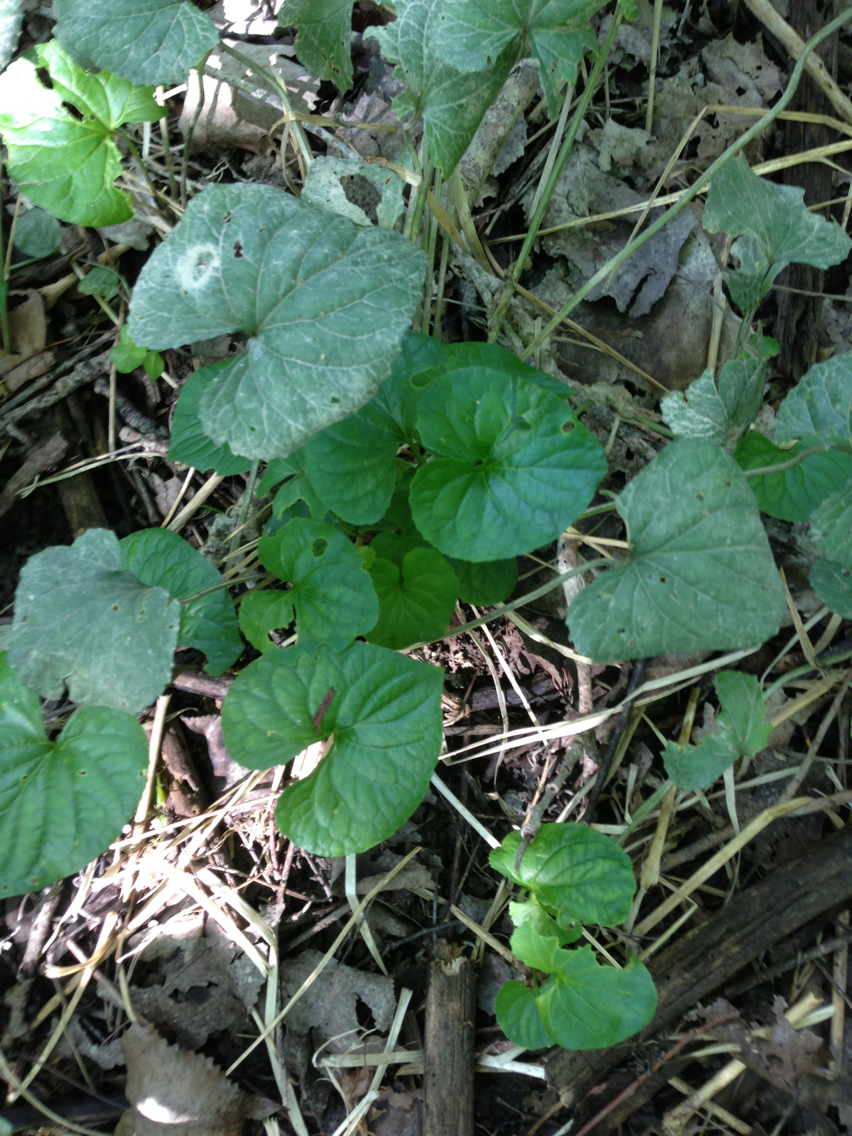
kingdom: Plantae
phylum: Tracheophyta
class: Magnoliopsida
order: Ranunculales
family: Ranunculaceae
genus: Caltha
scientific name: Caltha palustris
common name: Marsh marigold
